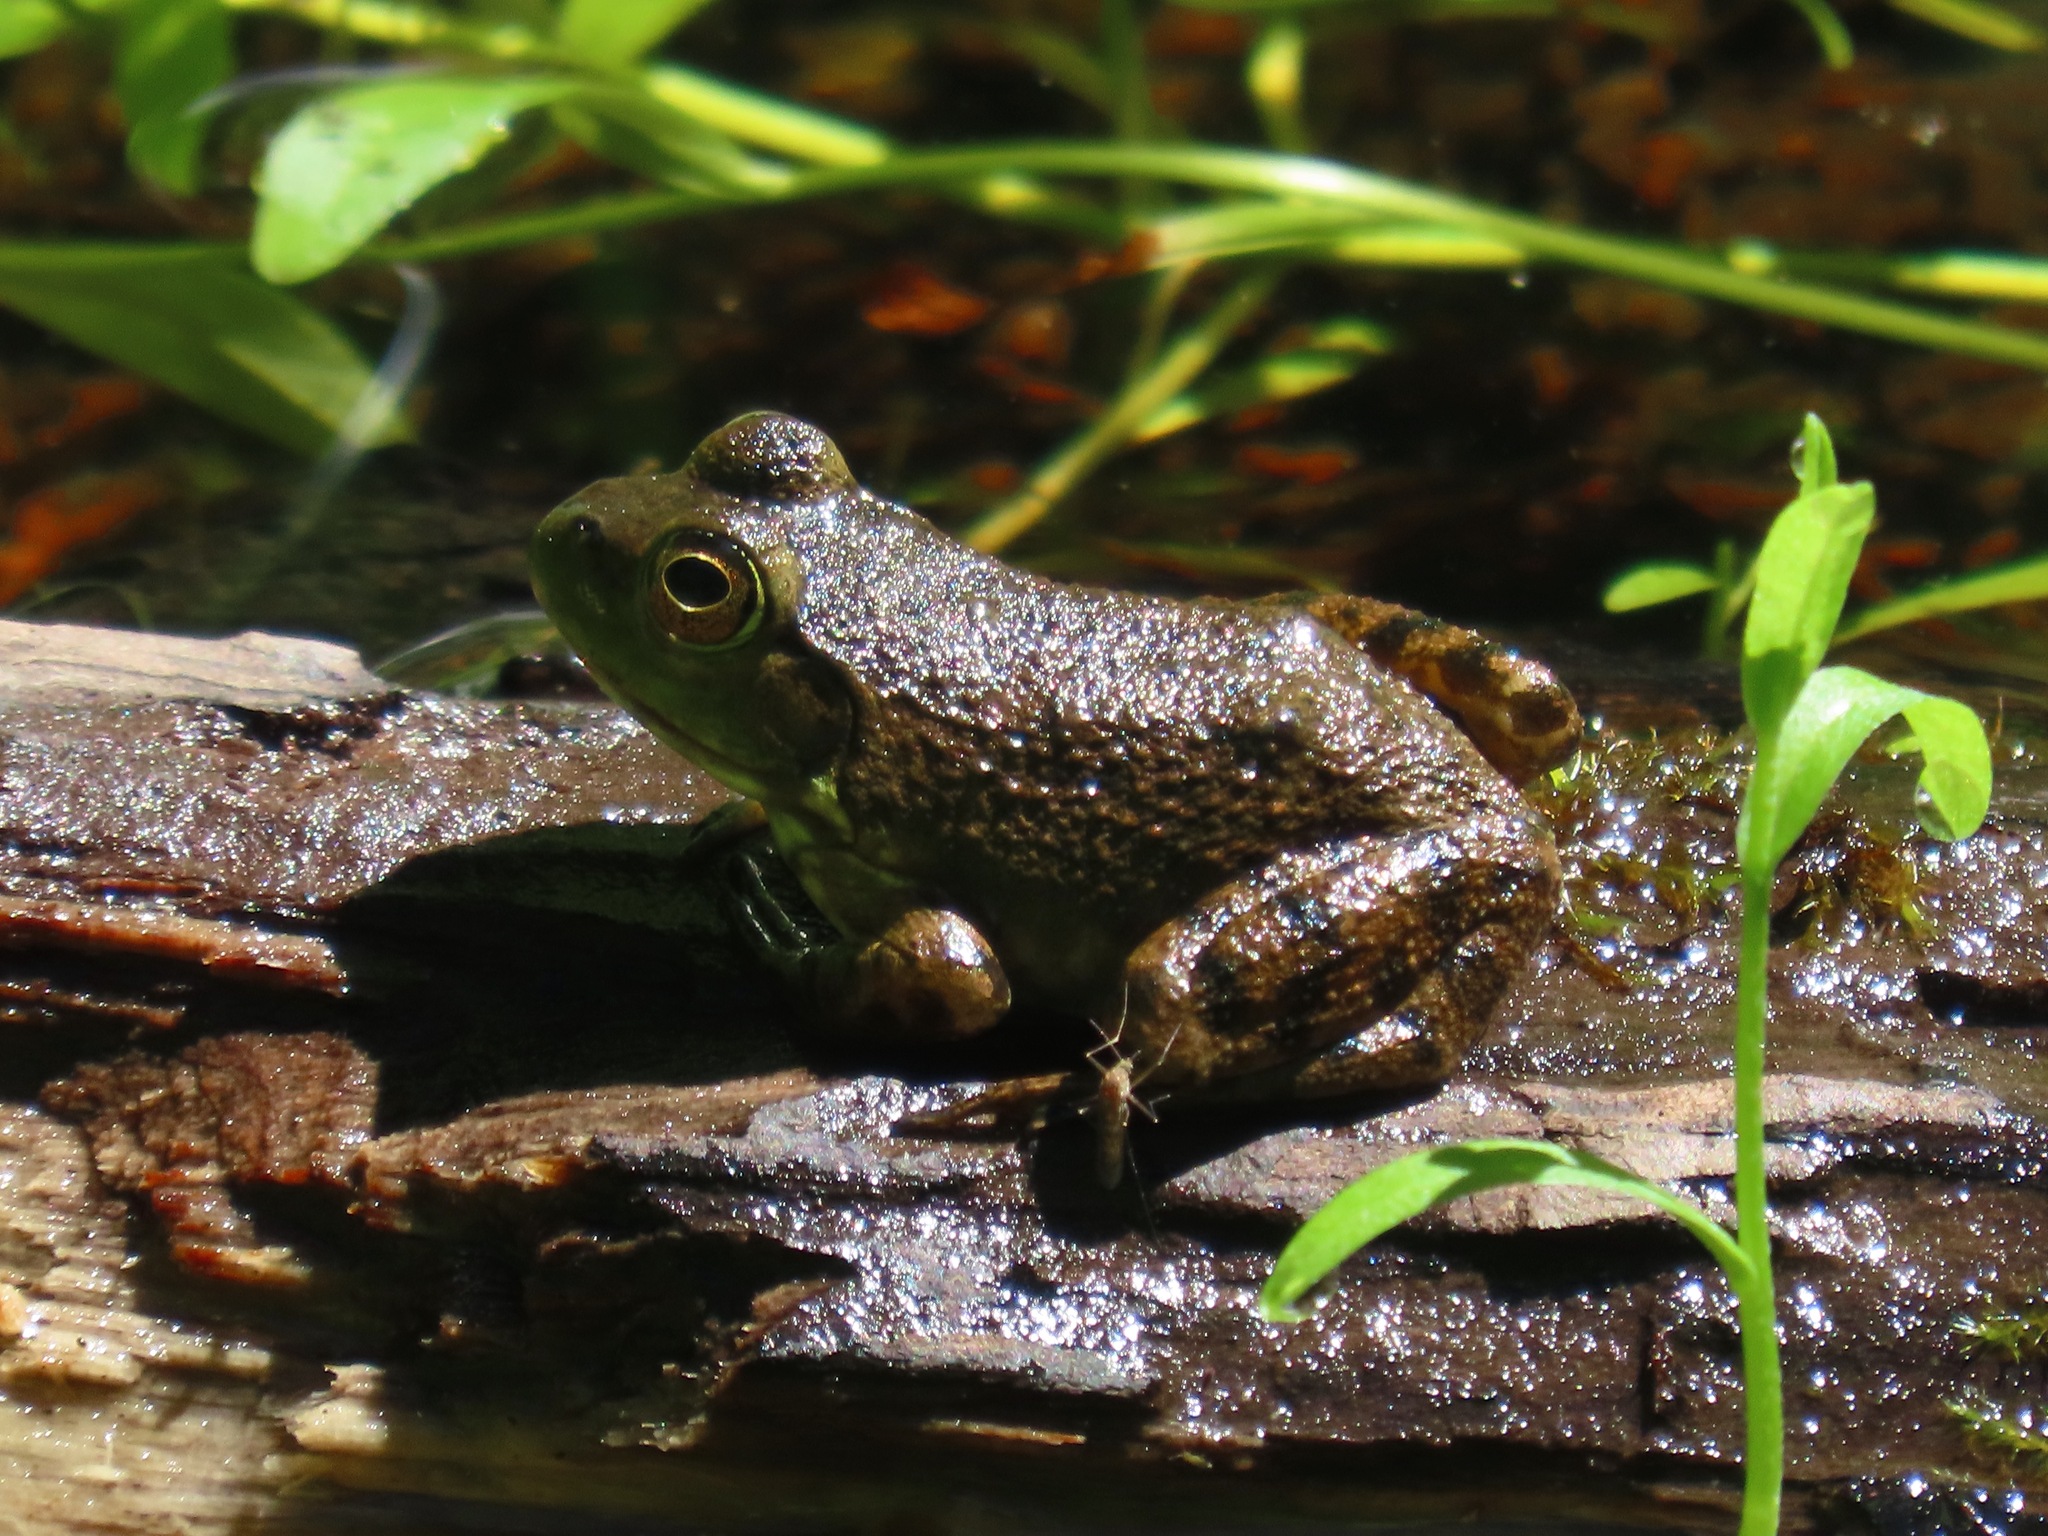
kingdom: Animalia
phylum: Chordata
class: Amphibia
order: Anura
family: Ranidae
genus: Lithobates
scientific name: Lithobates catesbeianus
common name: American bullfrog
